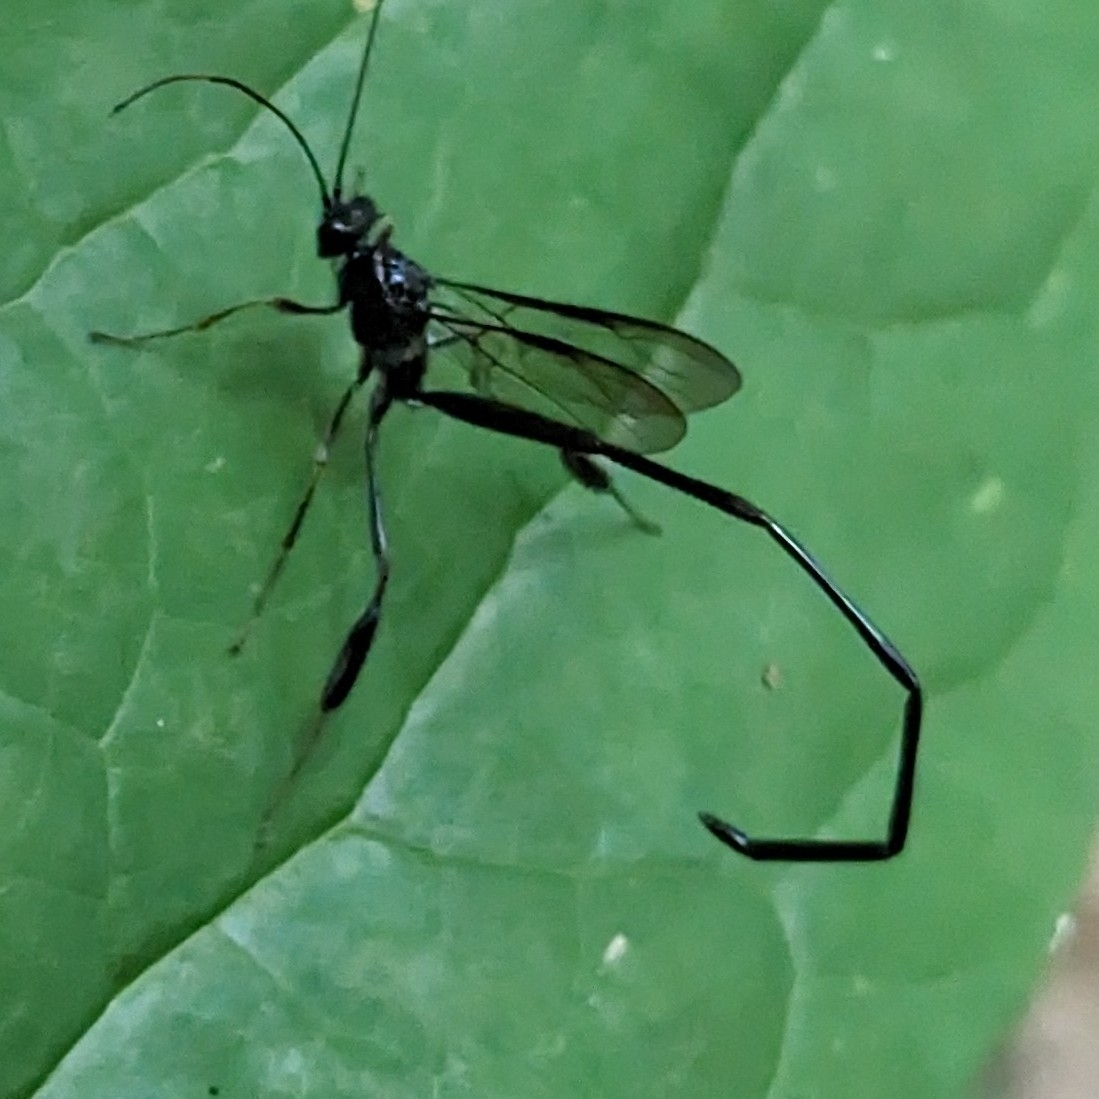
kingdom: Animalia
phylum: Arthropoda
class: Insecta
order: Hymenoptera
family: Pelecinidae
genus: Pelecinus
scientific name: Pelecinus polyturator
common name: American pelecinid wasp
